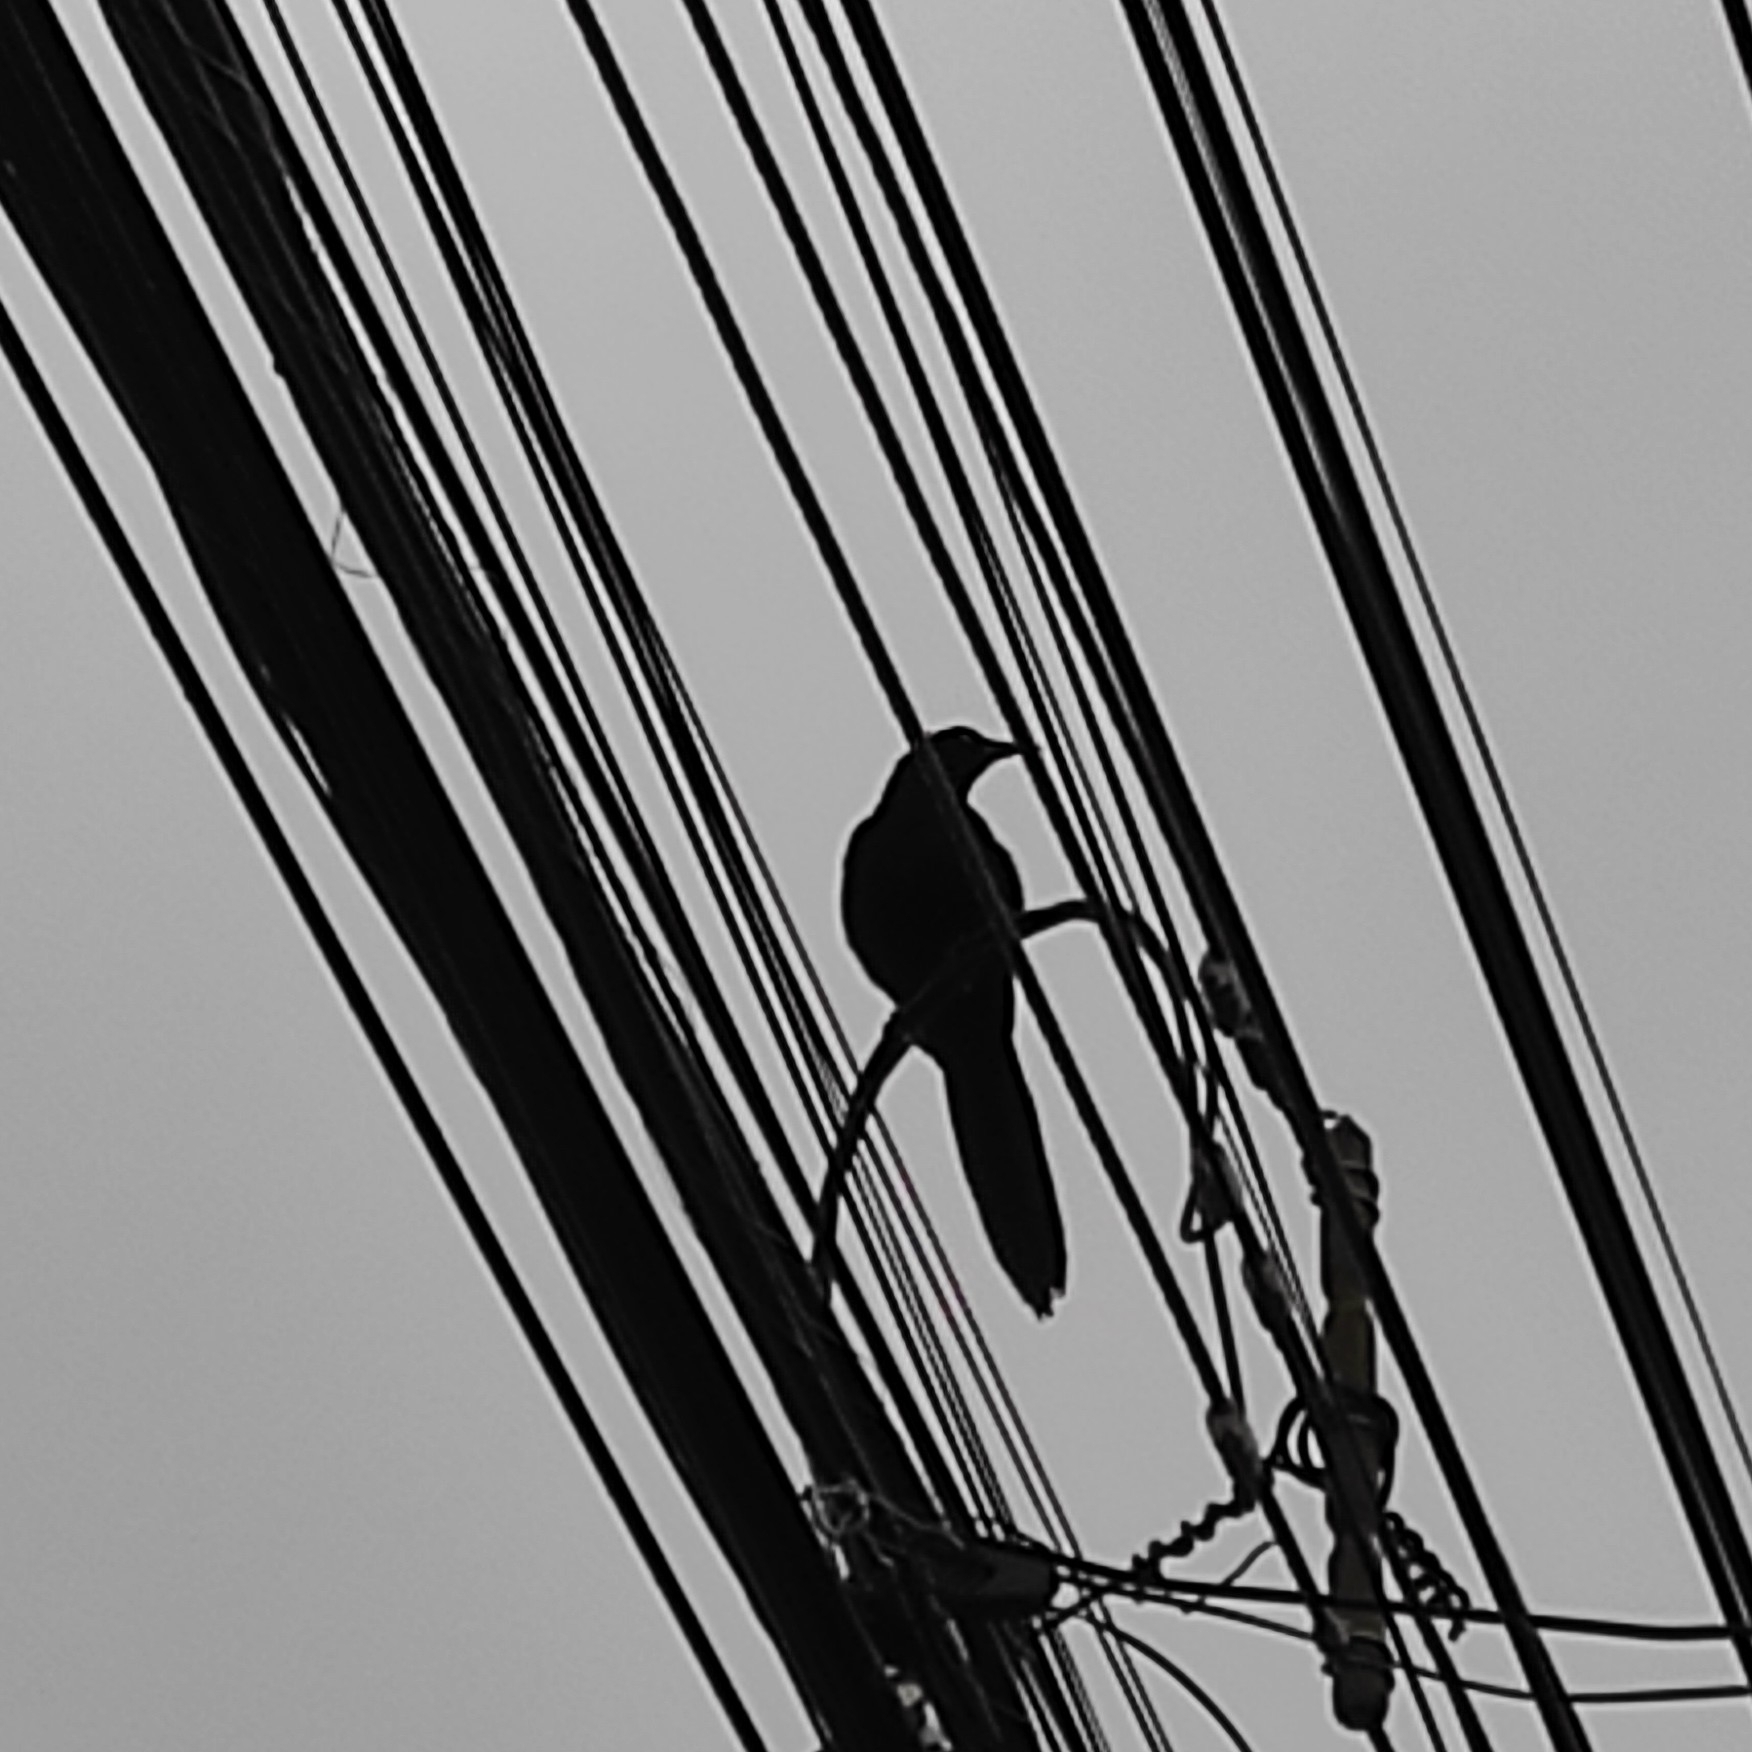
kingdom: Animalia
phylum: Chordata
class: Aves
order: Passeriformes
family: Icteridae
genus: Quiscalus
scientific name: Quiscalus mexicanus
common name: Great-tailed grackle
